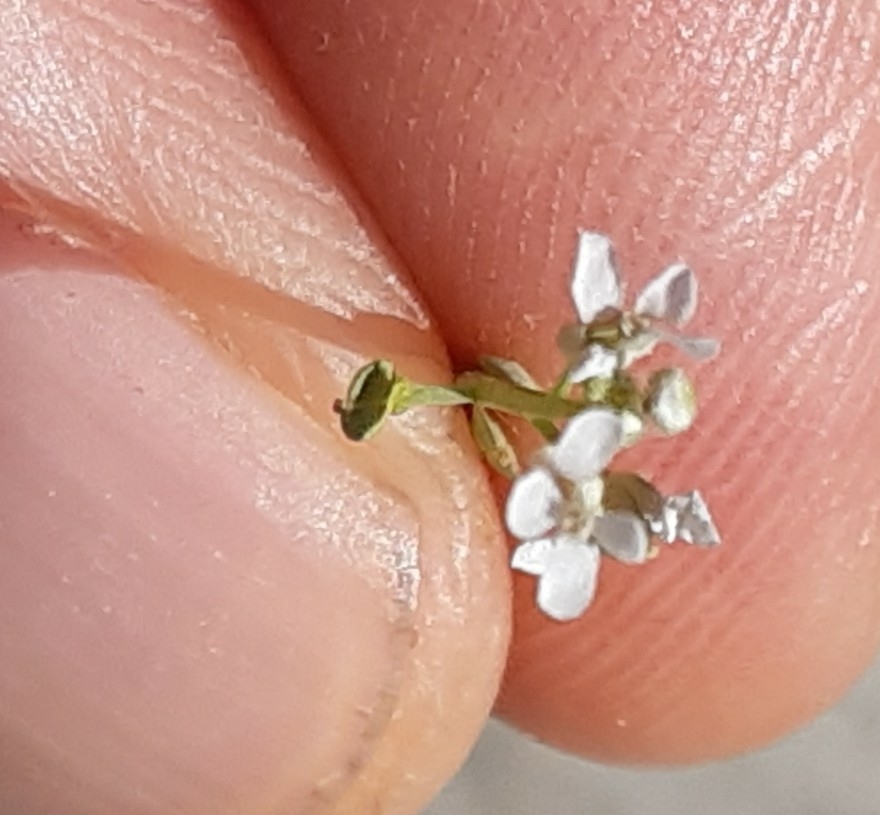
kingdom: Plantae
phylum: Tracheophyta
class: Magnoliopsida
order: Brassicales
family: Brassicaceae
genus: Lepidium
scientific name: Lepidium sativum
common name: Garden cress
